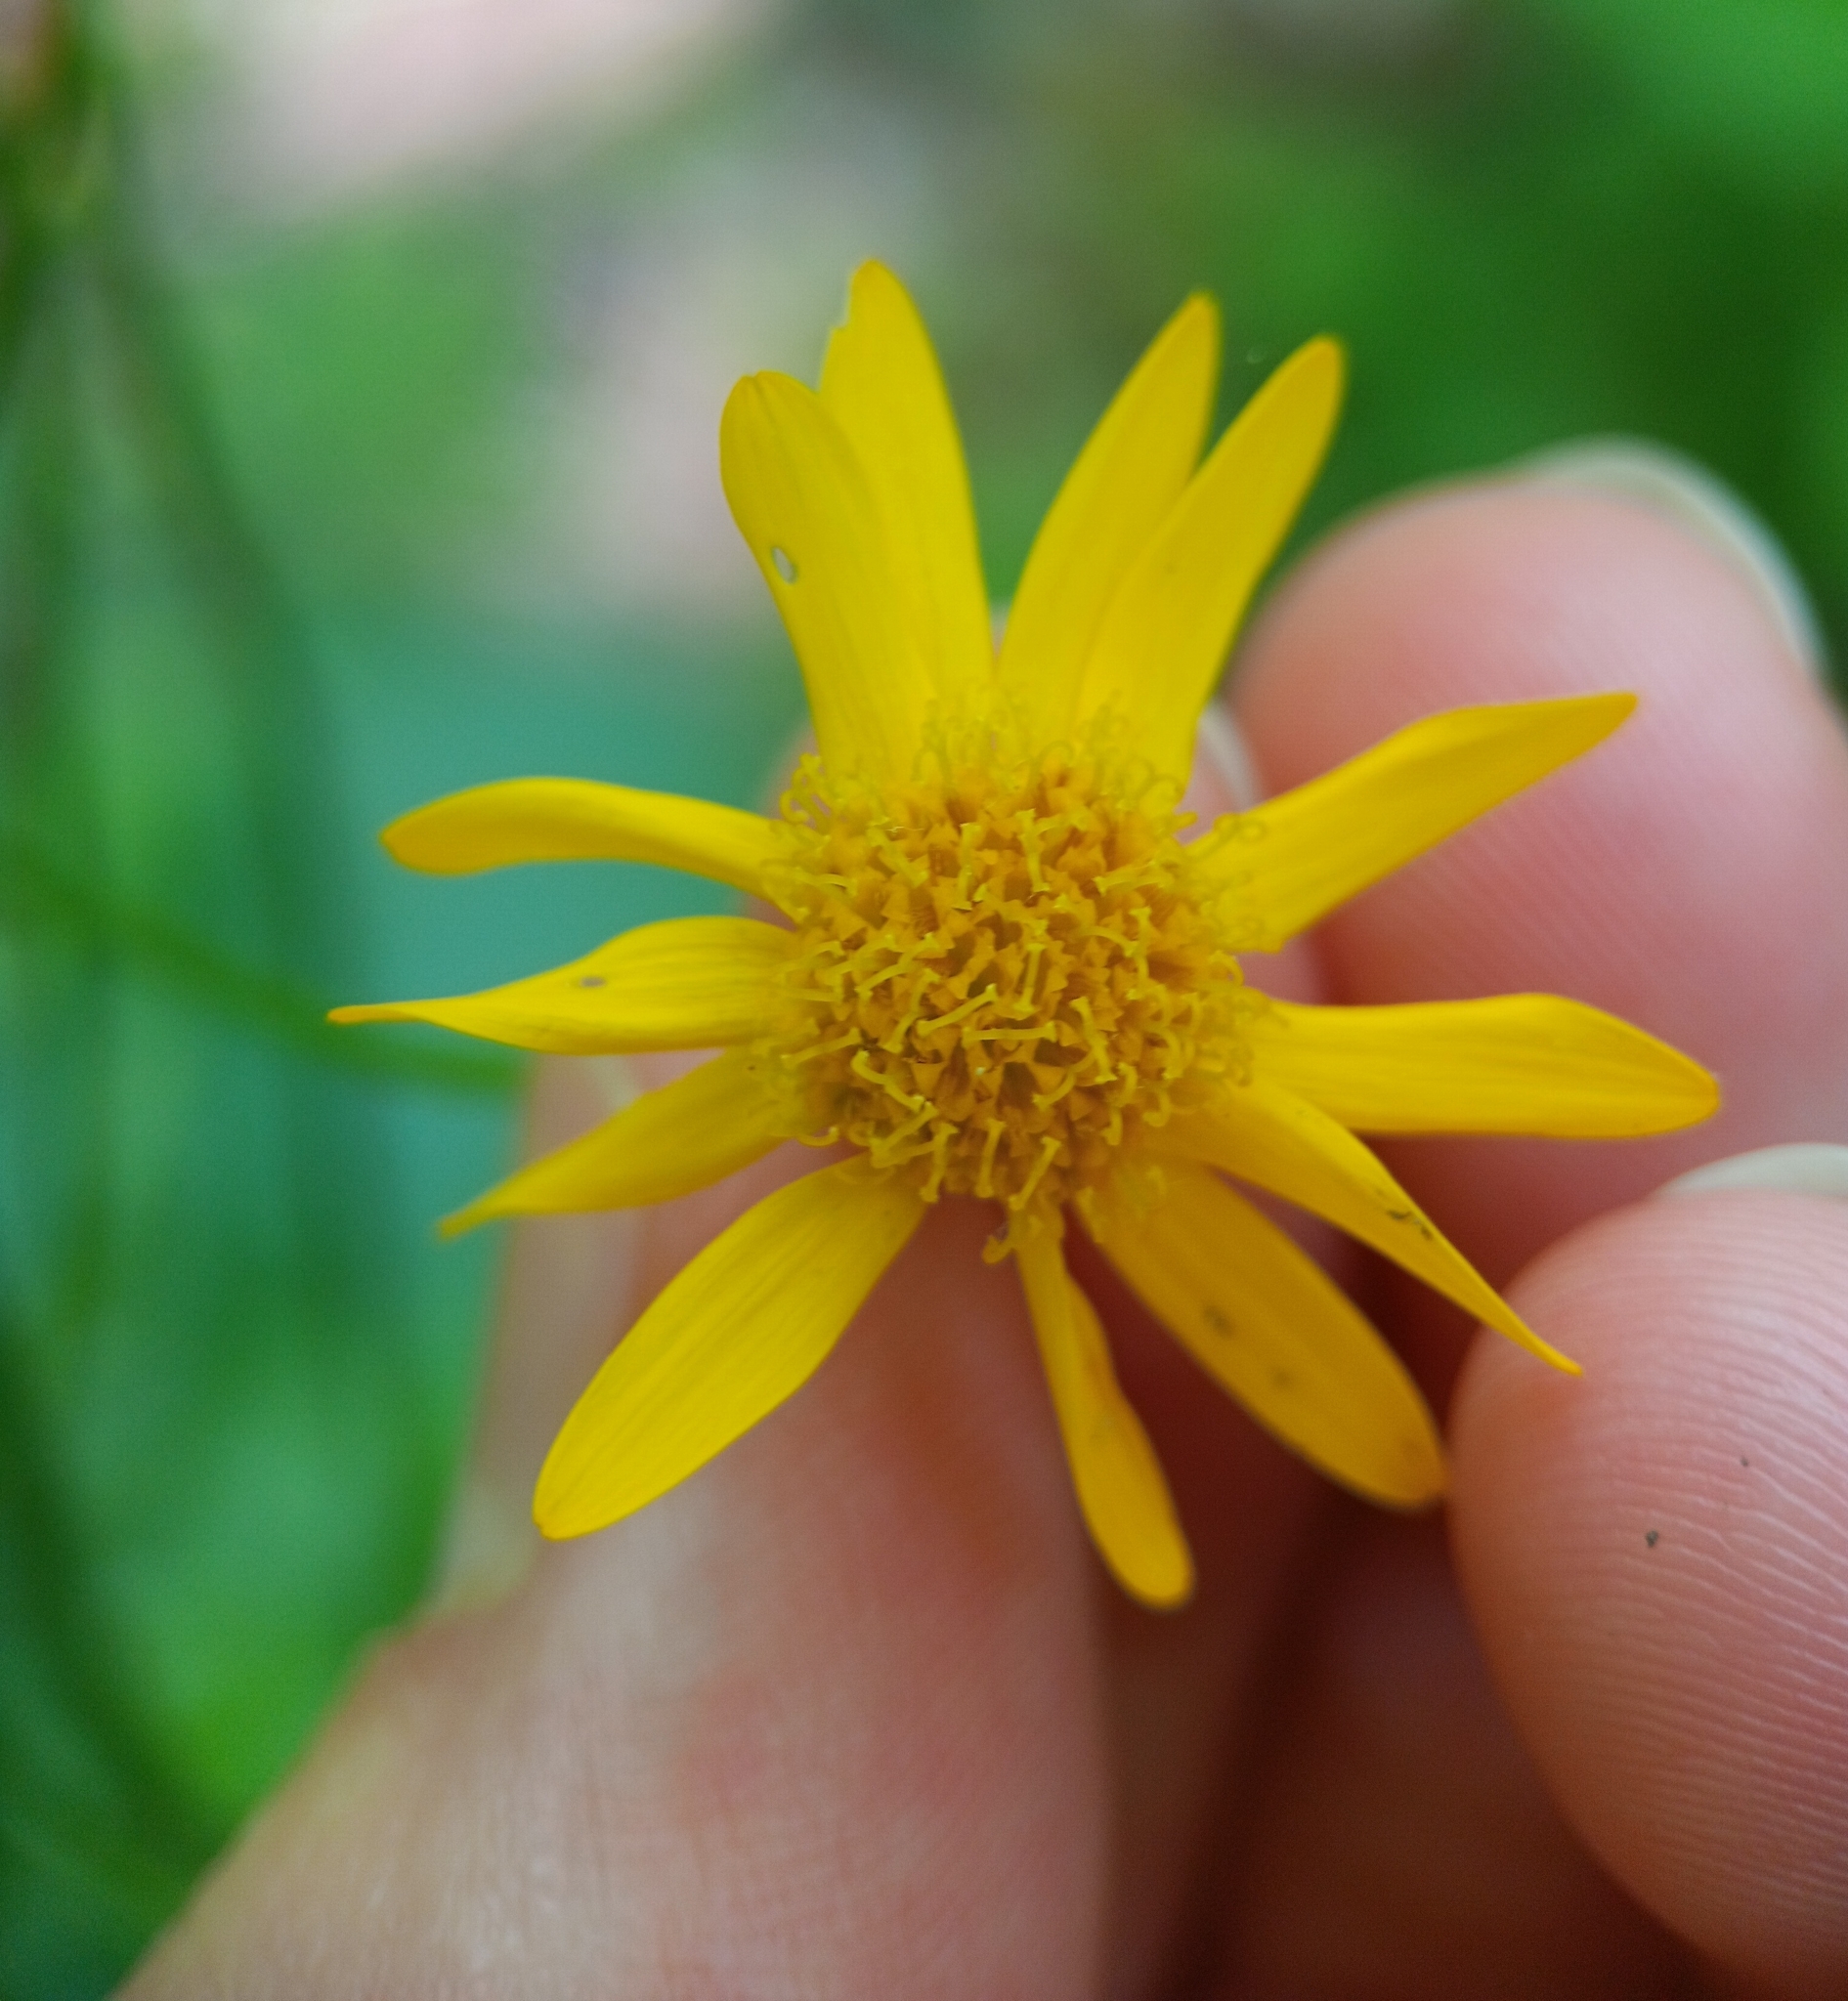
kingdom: Plantae
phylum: Tracheophyta
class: Magnoliopsida
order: Asterales
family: Asteraceae
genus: Packera
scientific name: Packera aurea
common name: Golden groundsel
